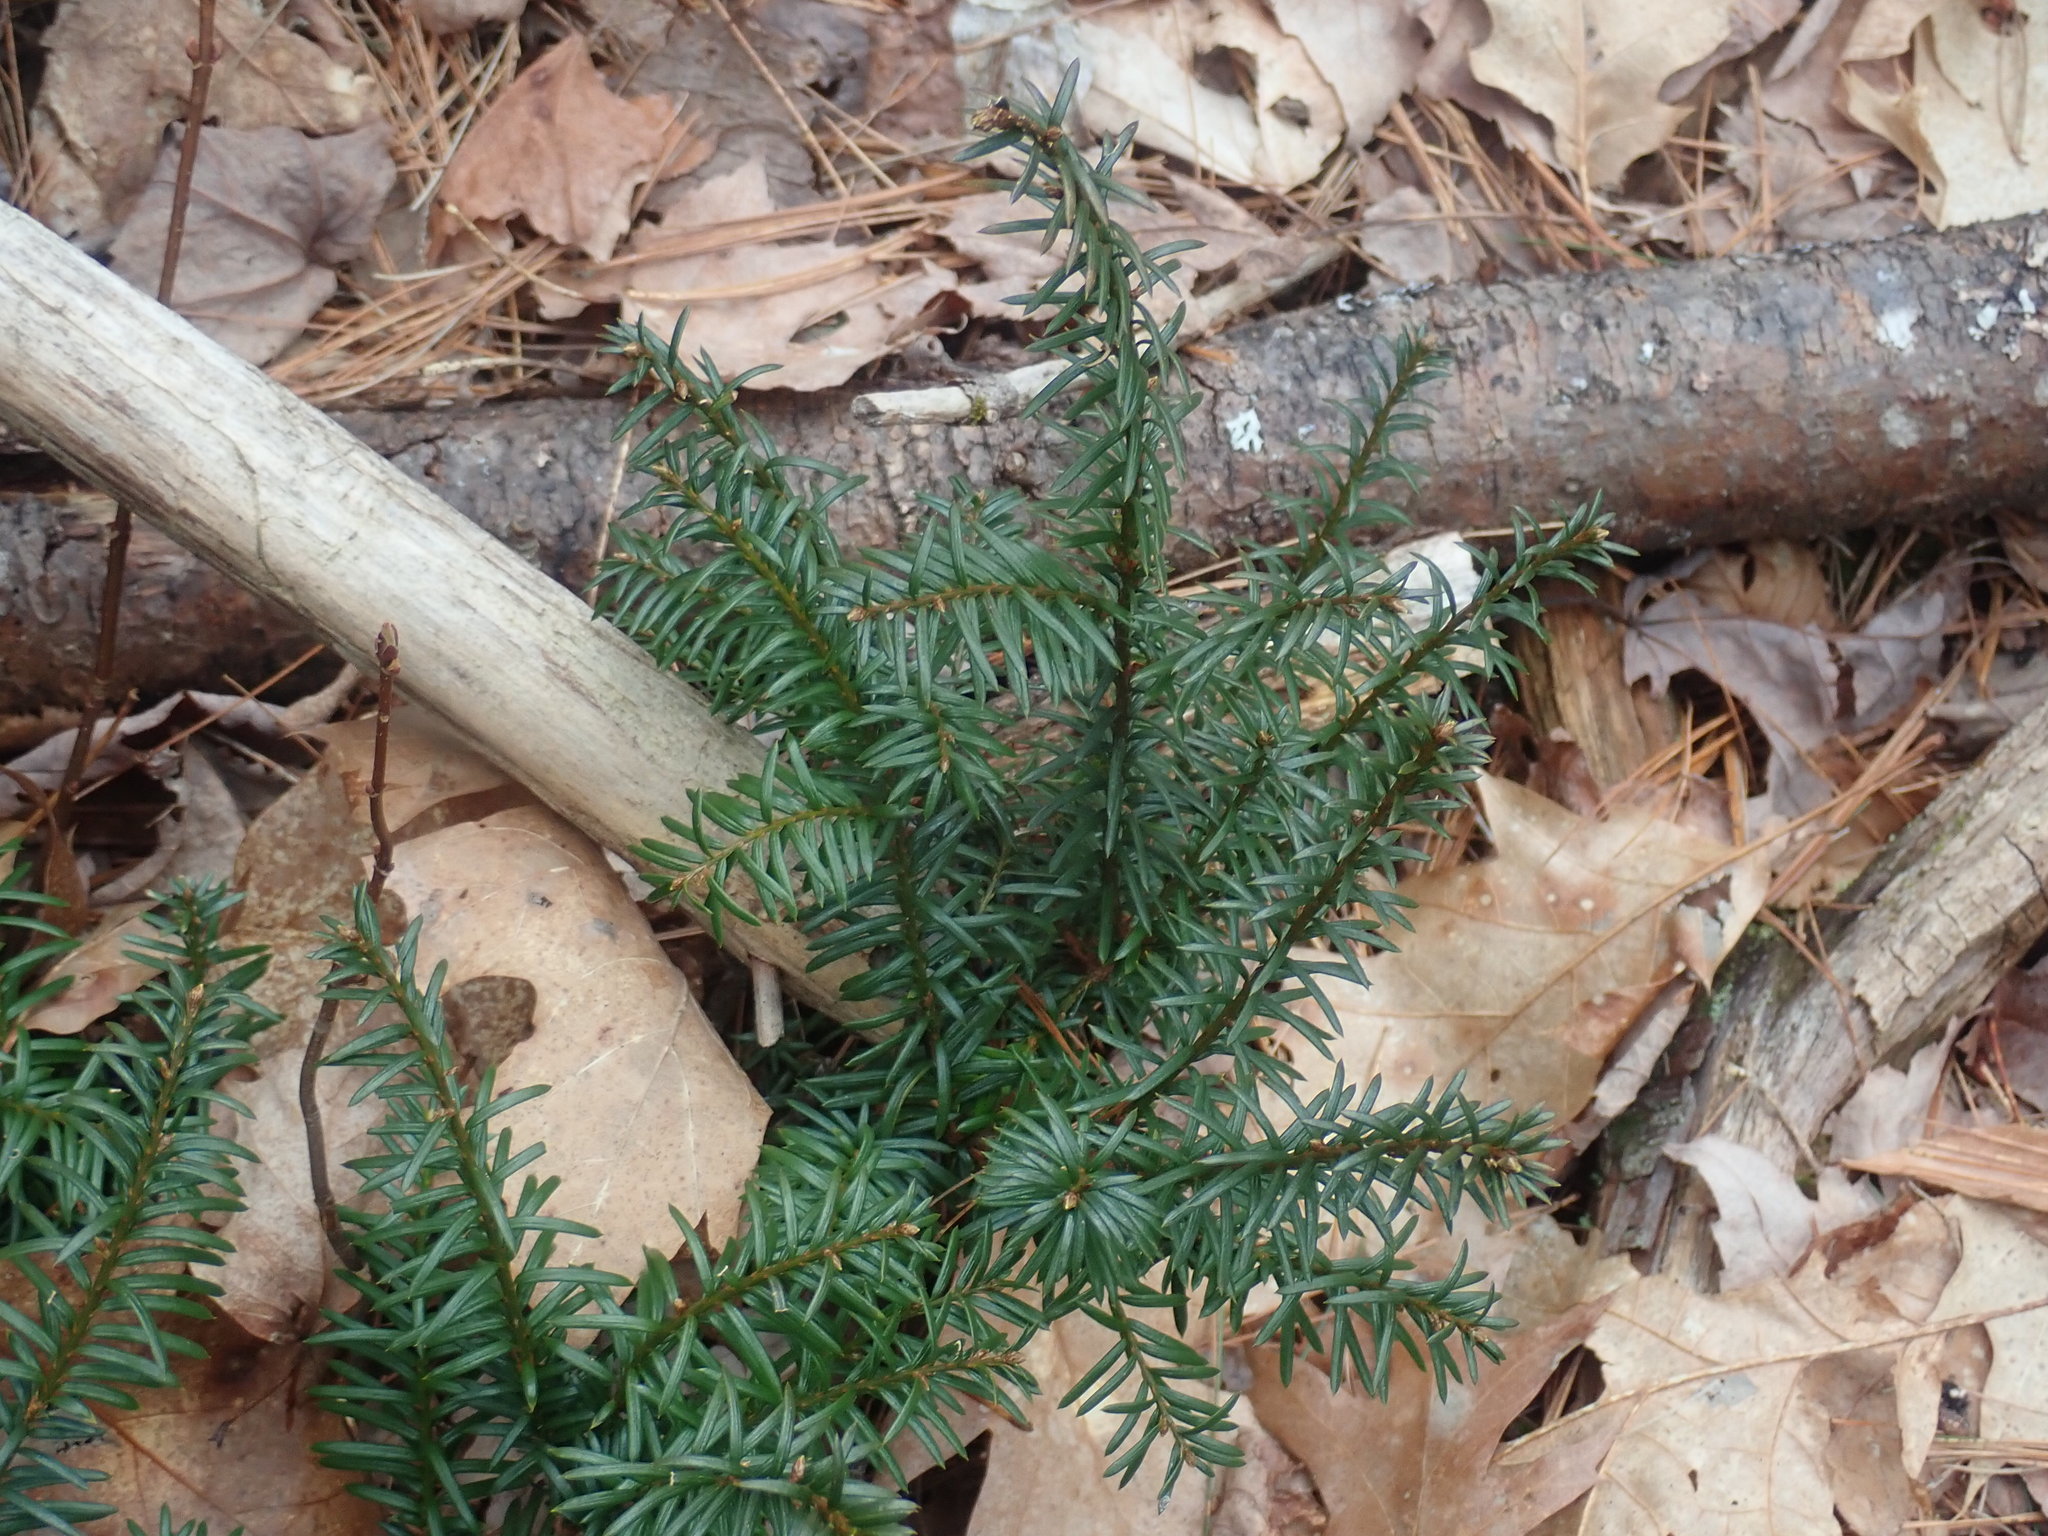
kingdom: Plantae
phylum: Tracheophyta
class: Pinopsida
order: Pinales
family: Taxaceae
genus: Taxus
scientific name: Taxus canadensis
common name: American yew
